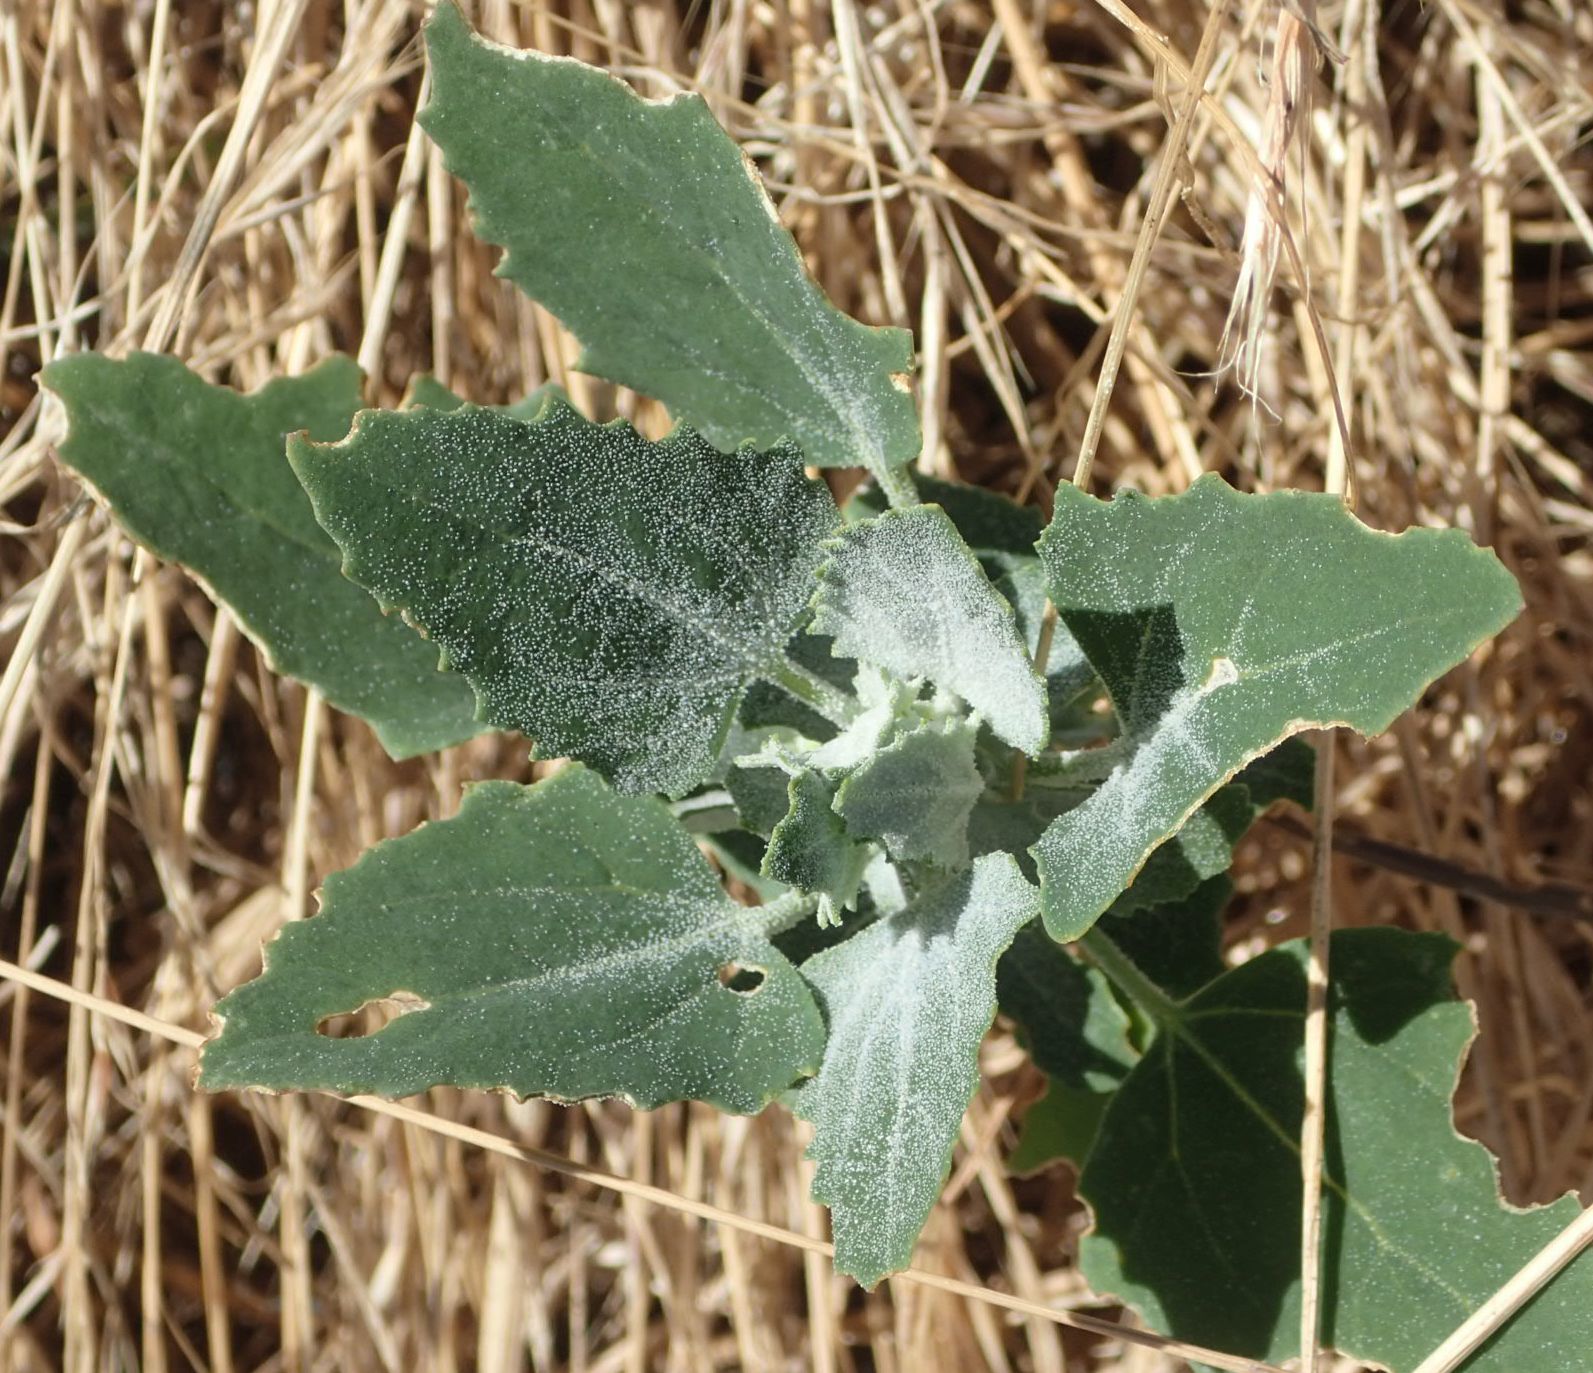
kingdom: Plantae
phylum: Tracheophyta
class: Magnoliopsida
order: Caryophyllales
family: Amaranthaceae
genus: Chenopodium
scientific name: Chenopodium album
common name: Fat-hen
